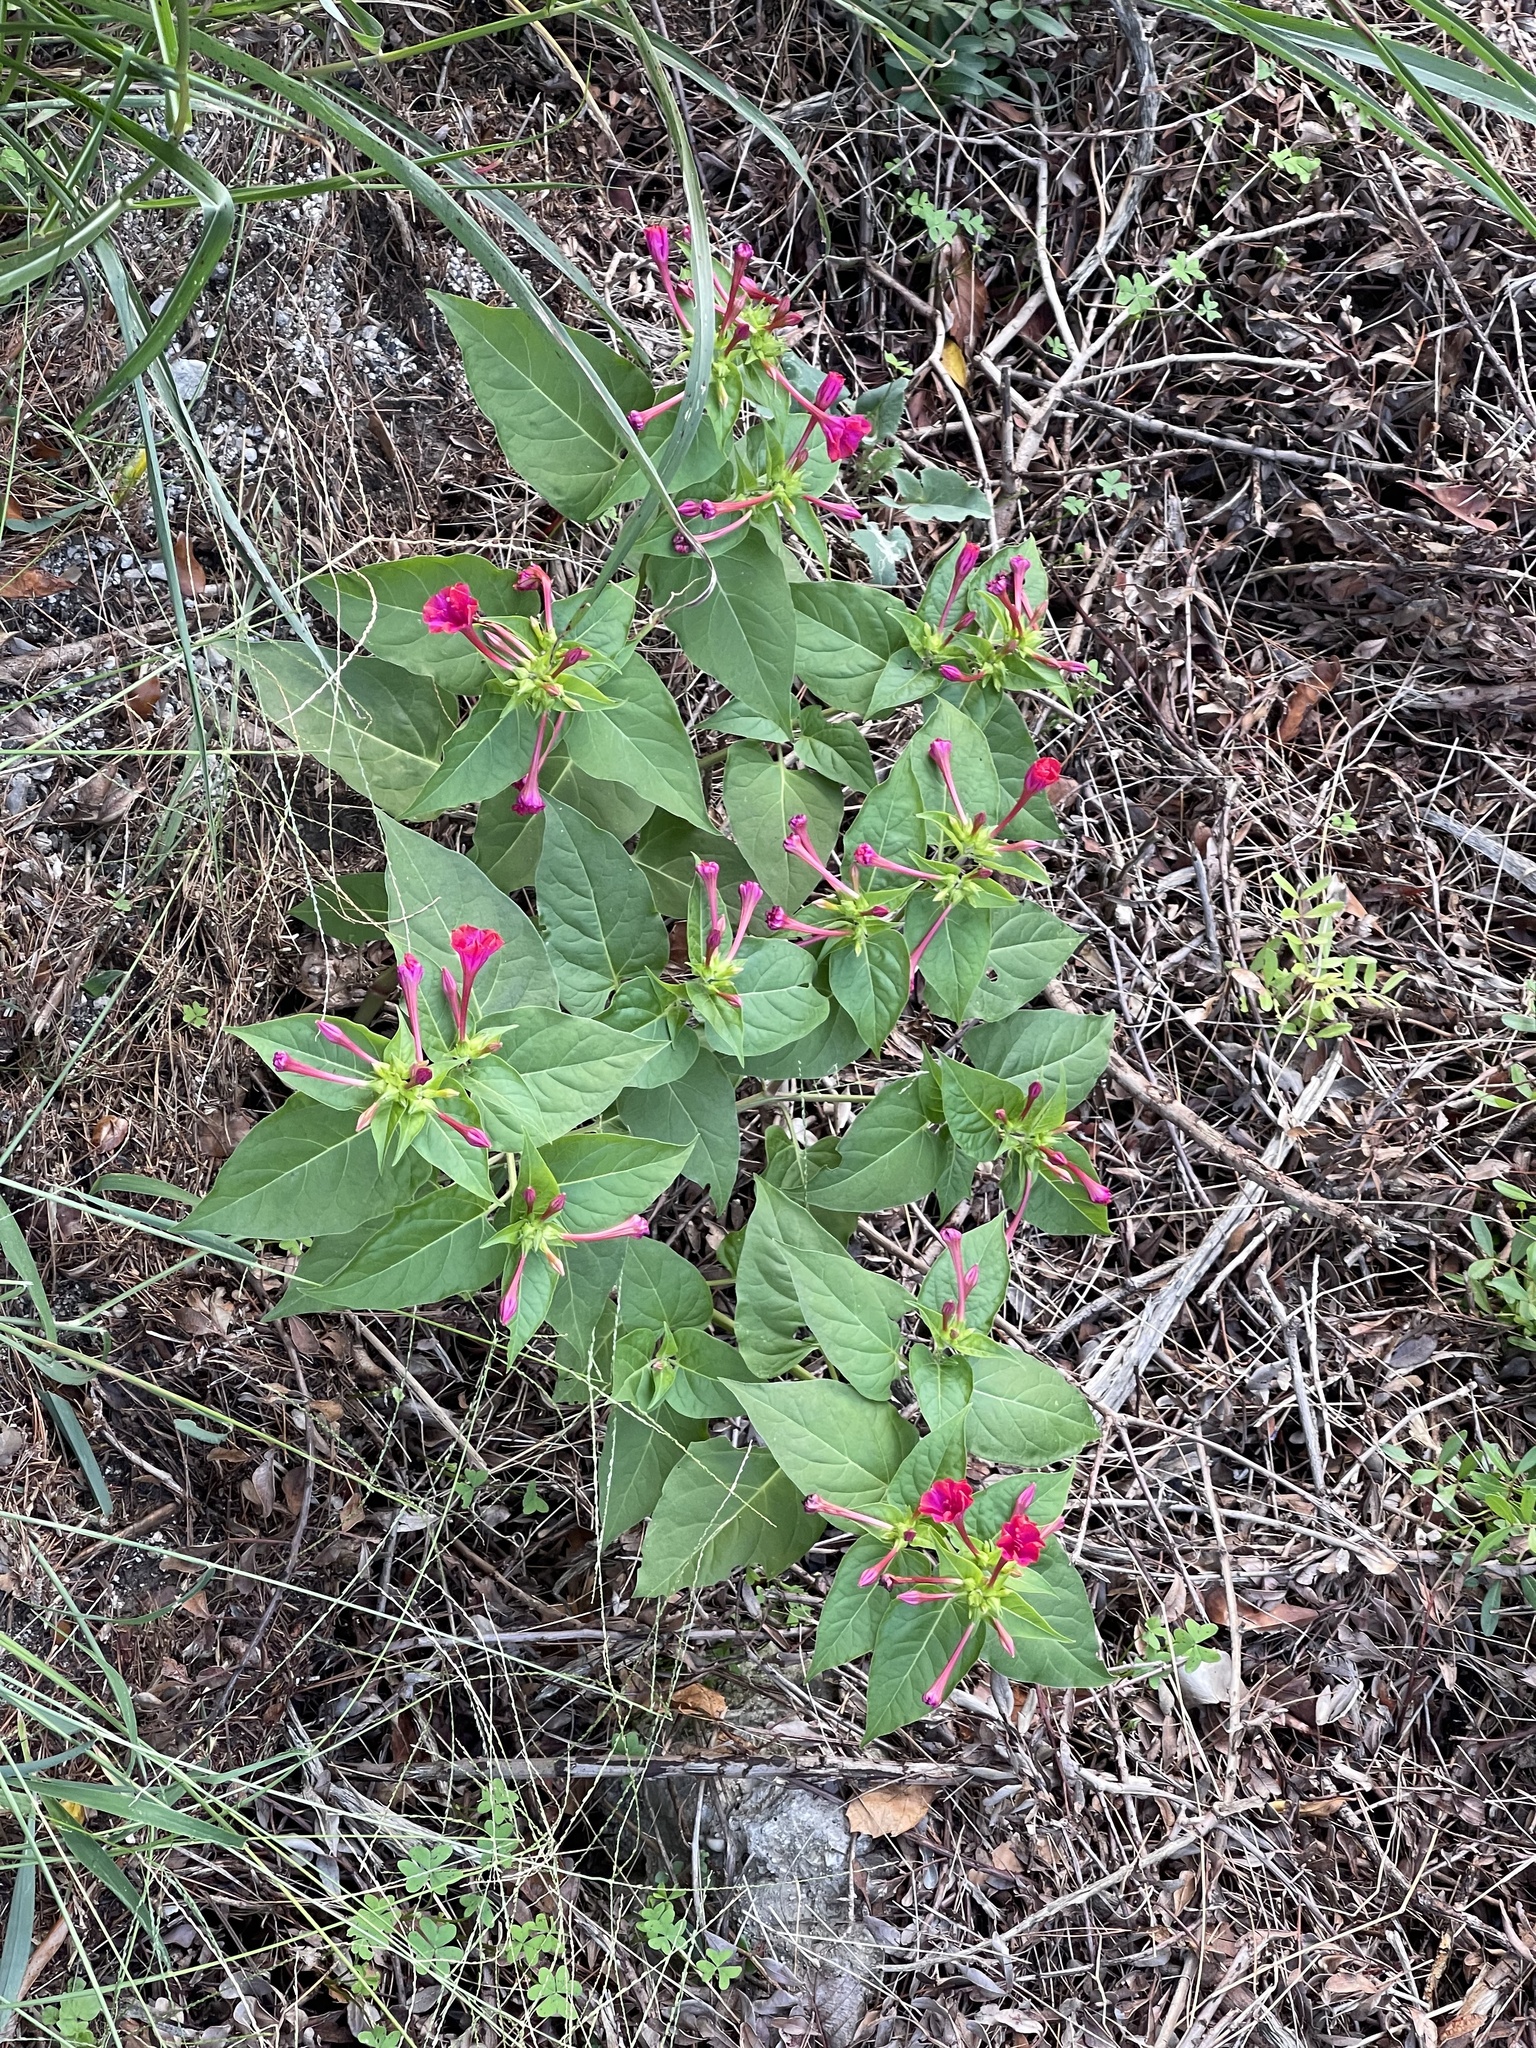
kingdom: Plantae
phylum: Tracheophyta
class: Magnoliopsida
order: Caryophyllales
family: Nyctaginaceae
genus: Mirabilis
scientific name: Mirabilis jalapa
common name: Marvel-of-peru
